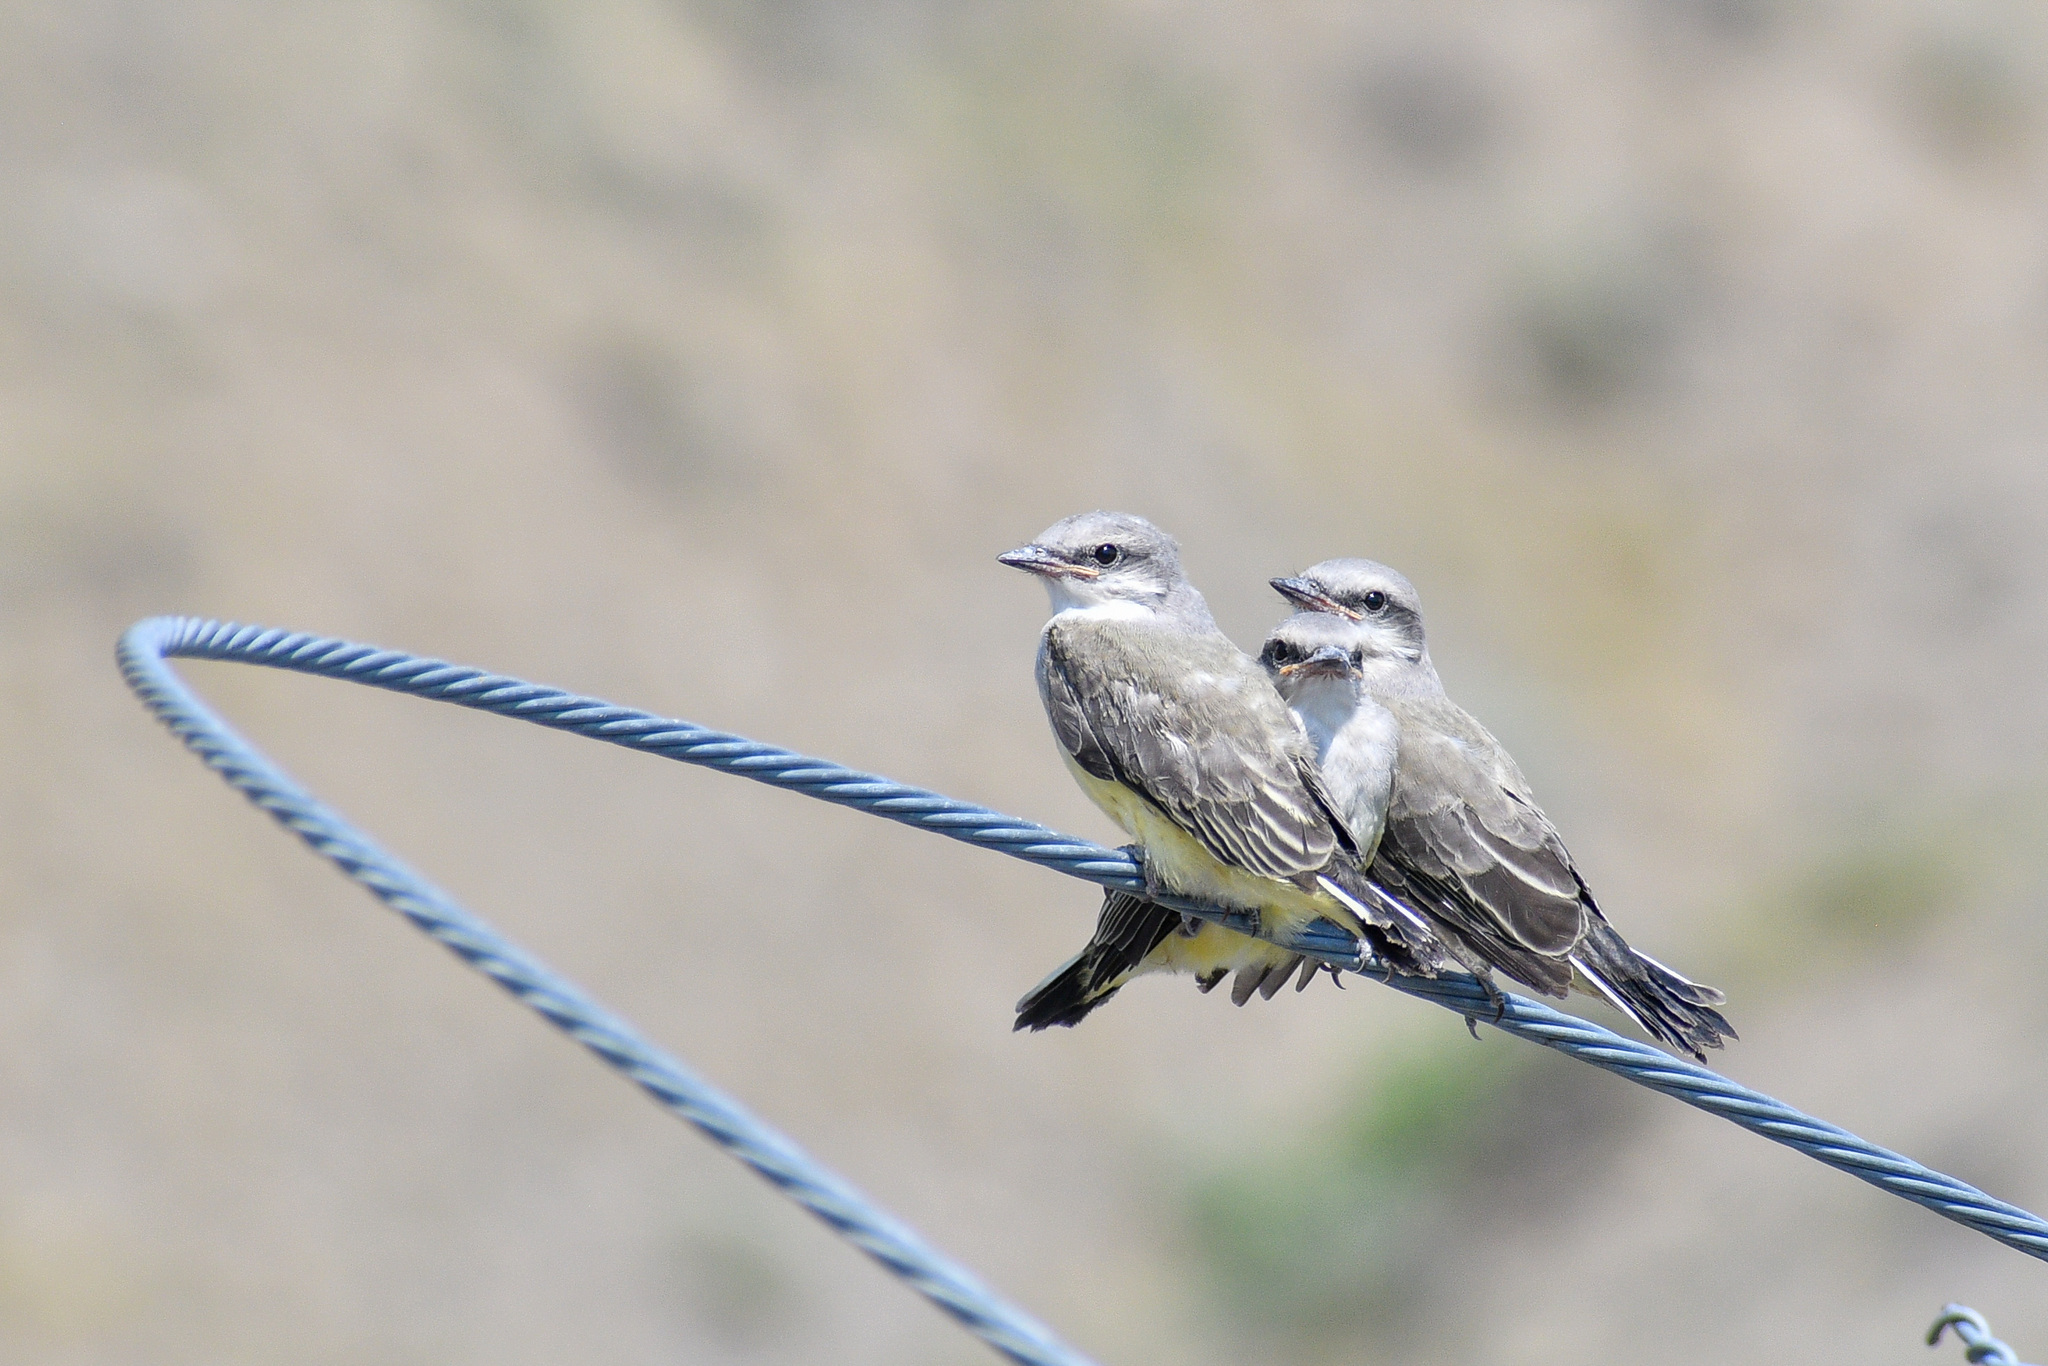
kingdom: Animalia
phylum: Chordata
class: Aves
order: Passeriformes
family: Tyrannidae
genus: Tyrannus
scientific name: Tyrannus verticalis
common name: Western kingbird
